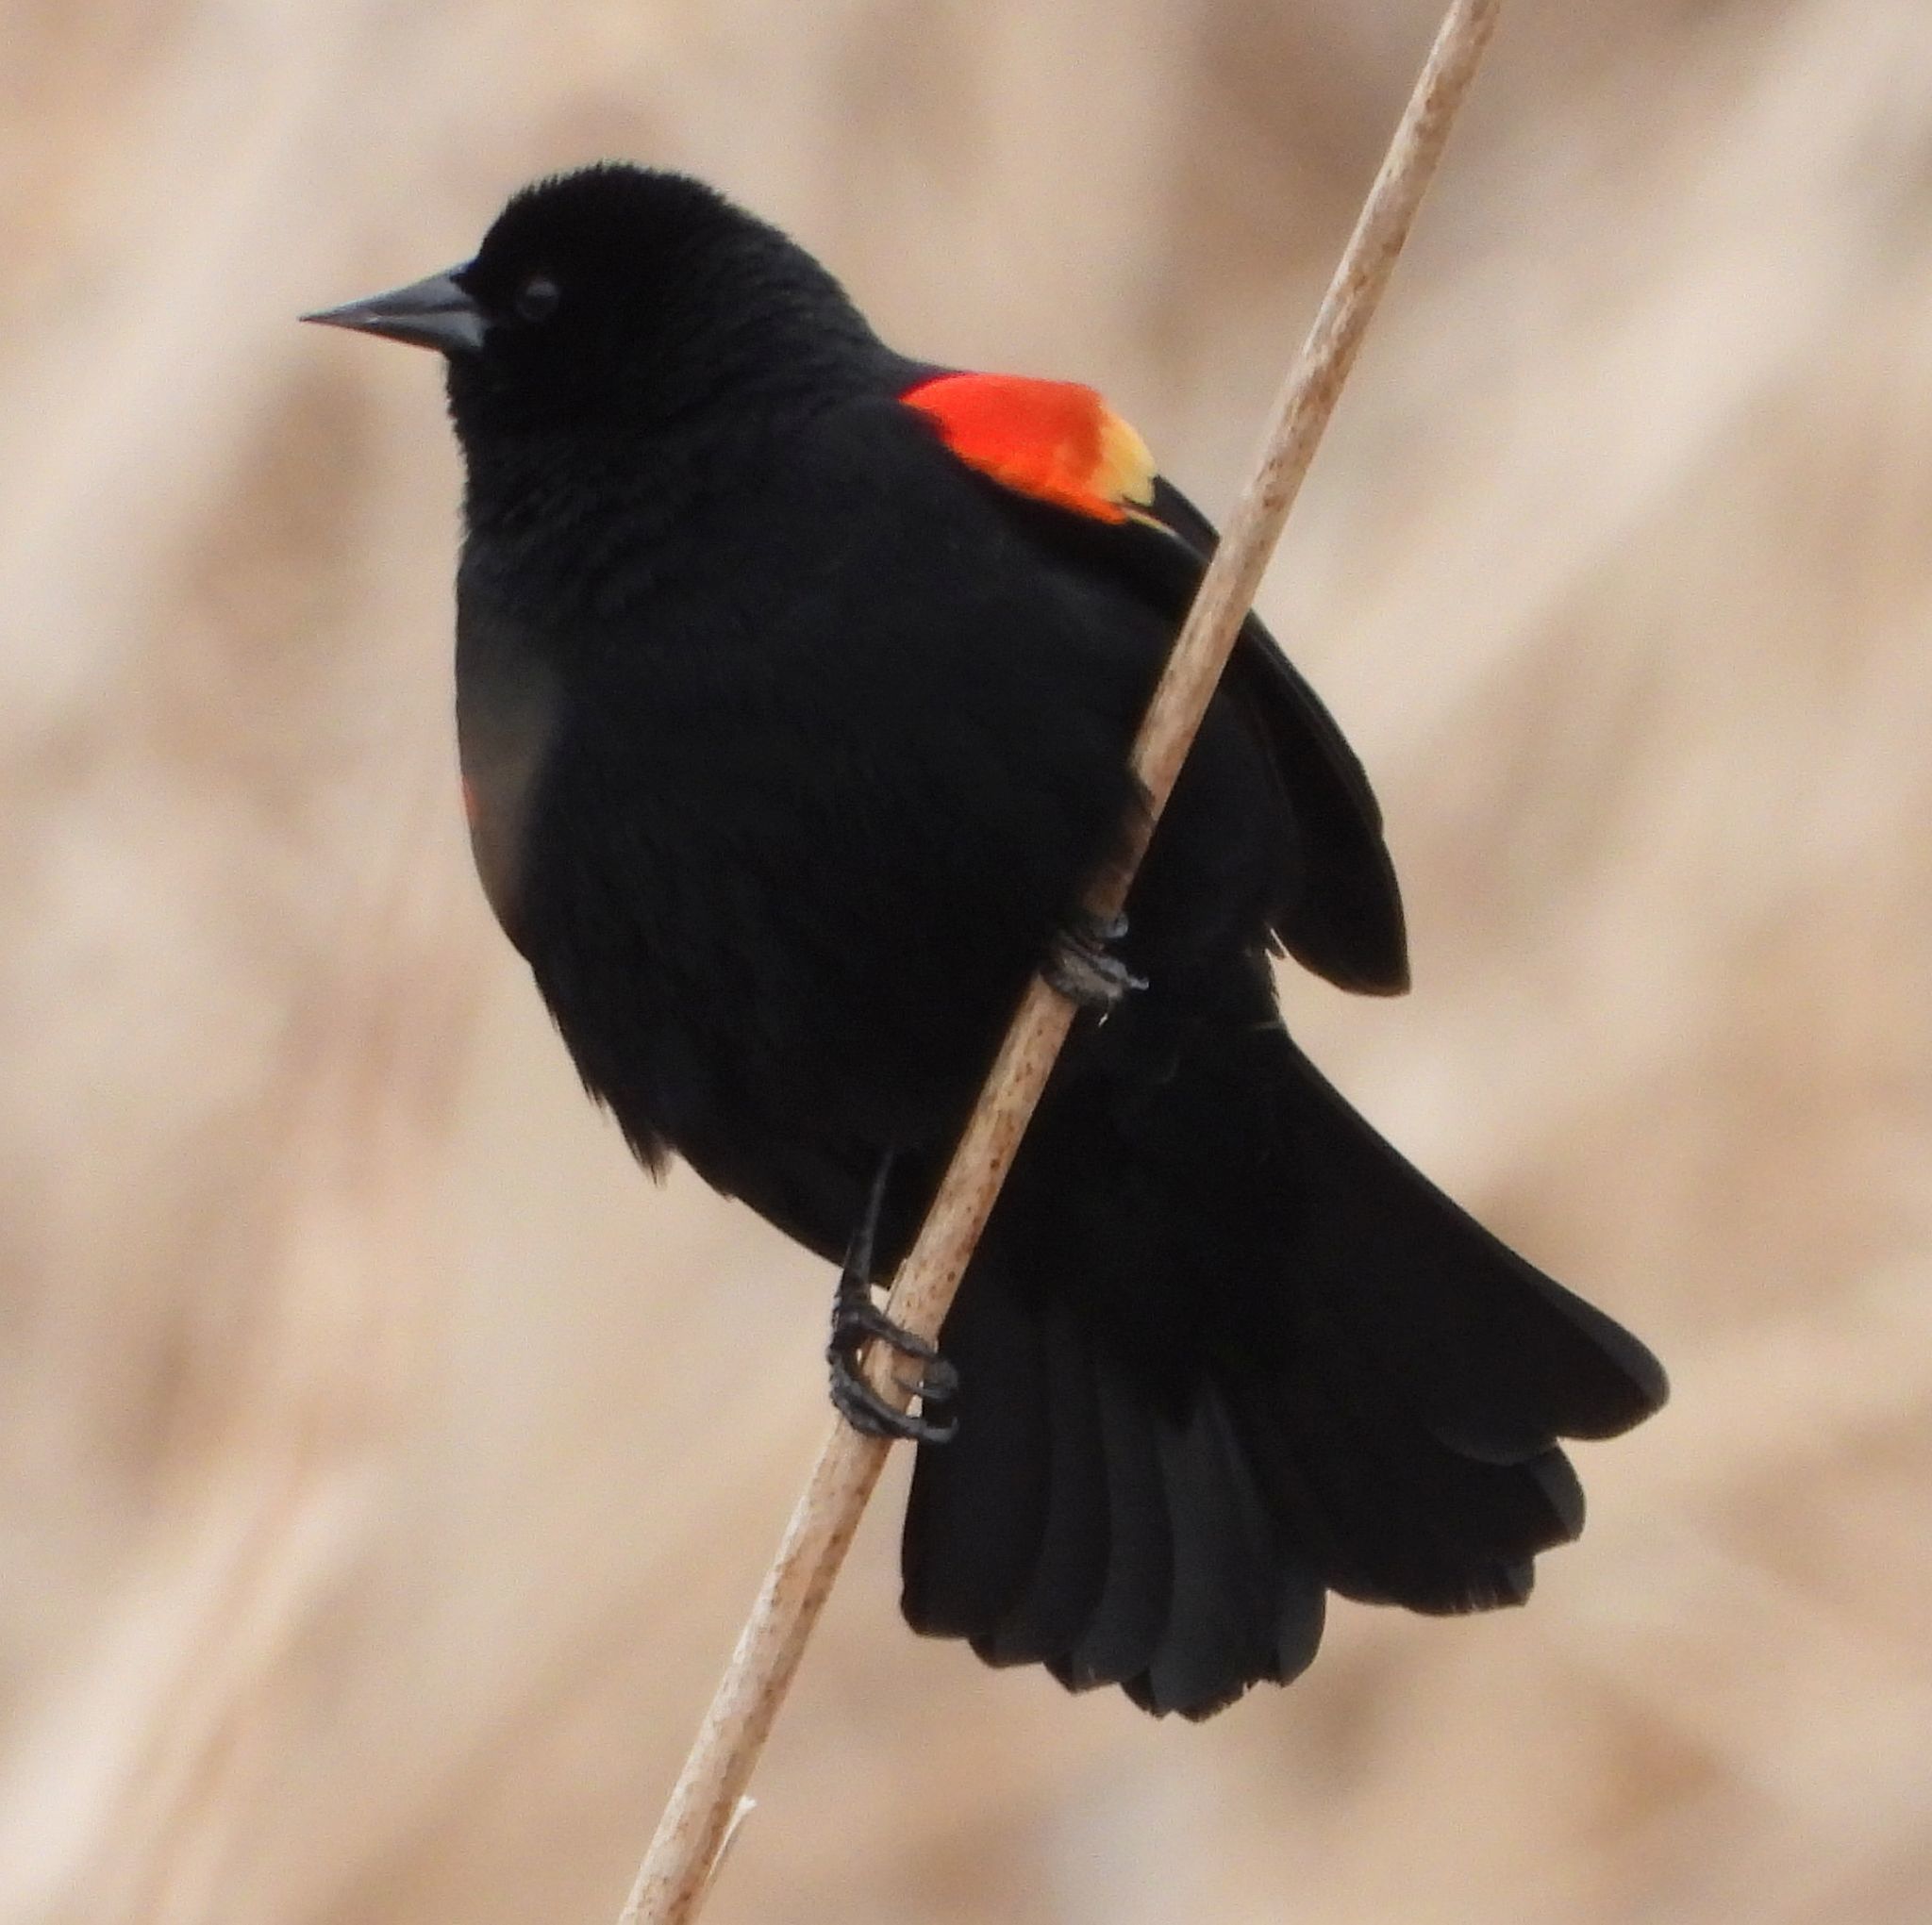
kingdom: Animalia
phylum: Chordata
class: Aves
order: Passeriformes
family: Icteridae
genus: Agelaius
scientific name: Agelaius phoeniceus
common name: Red-winged blackbird
